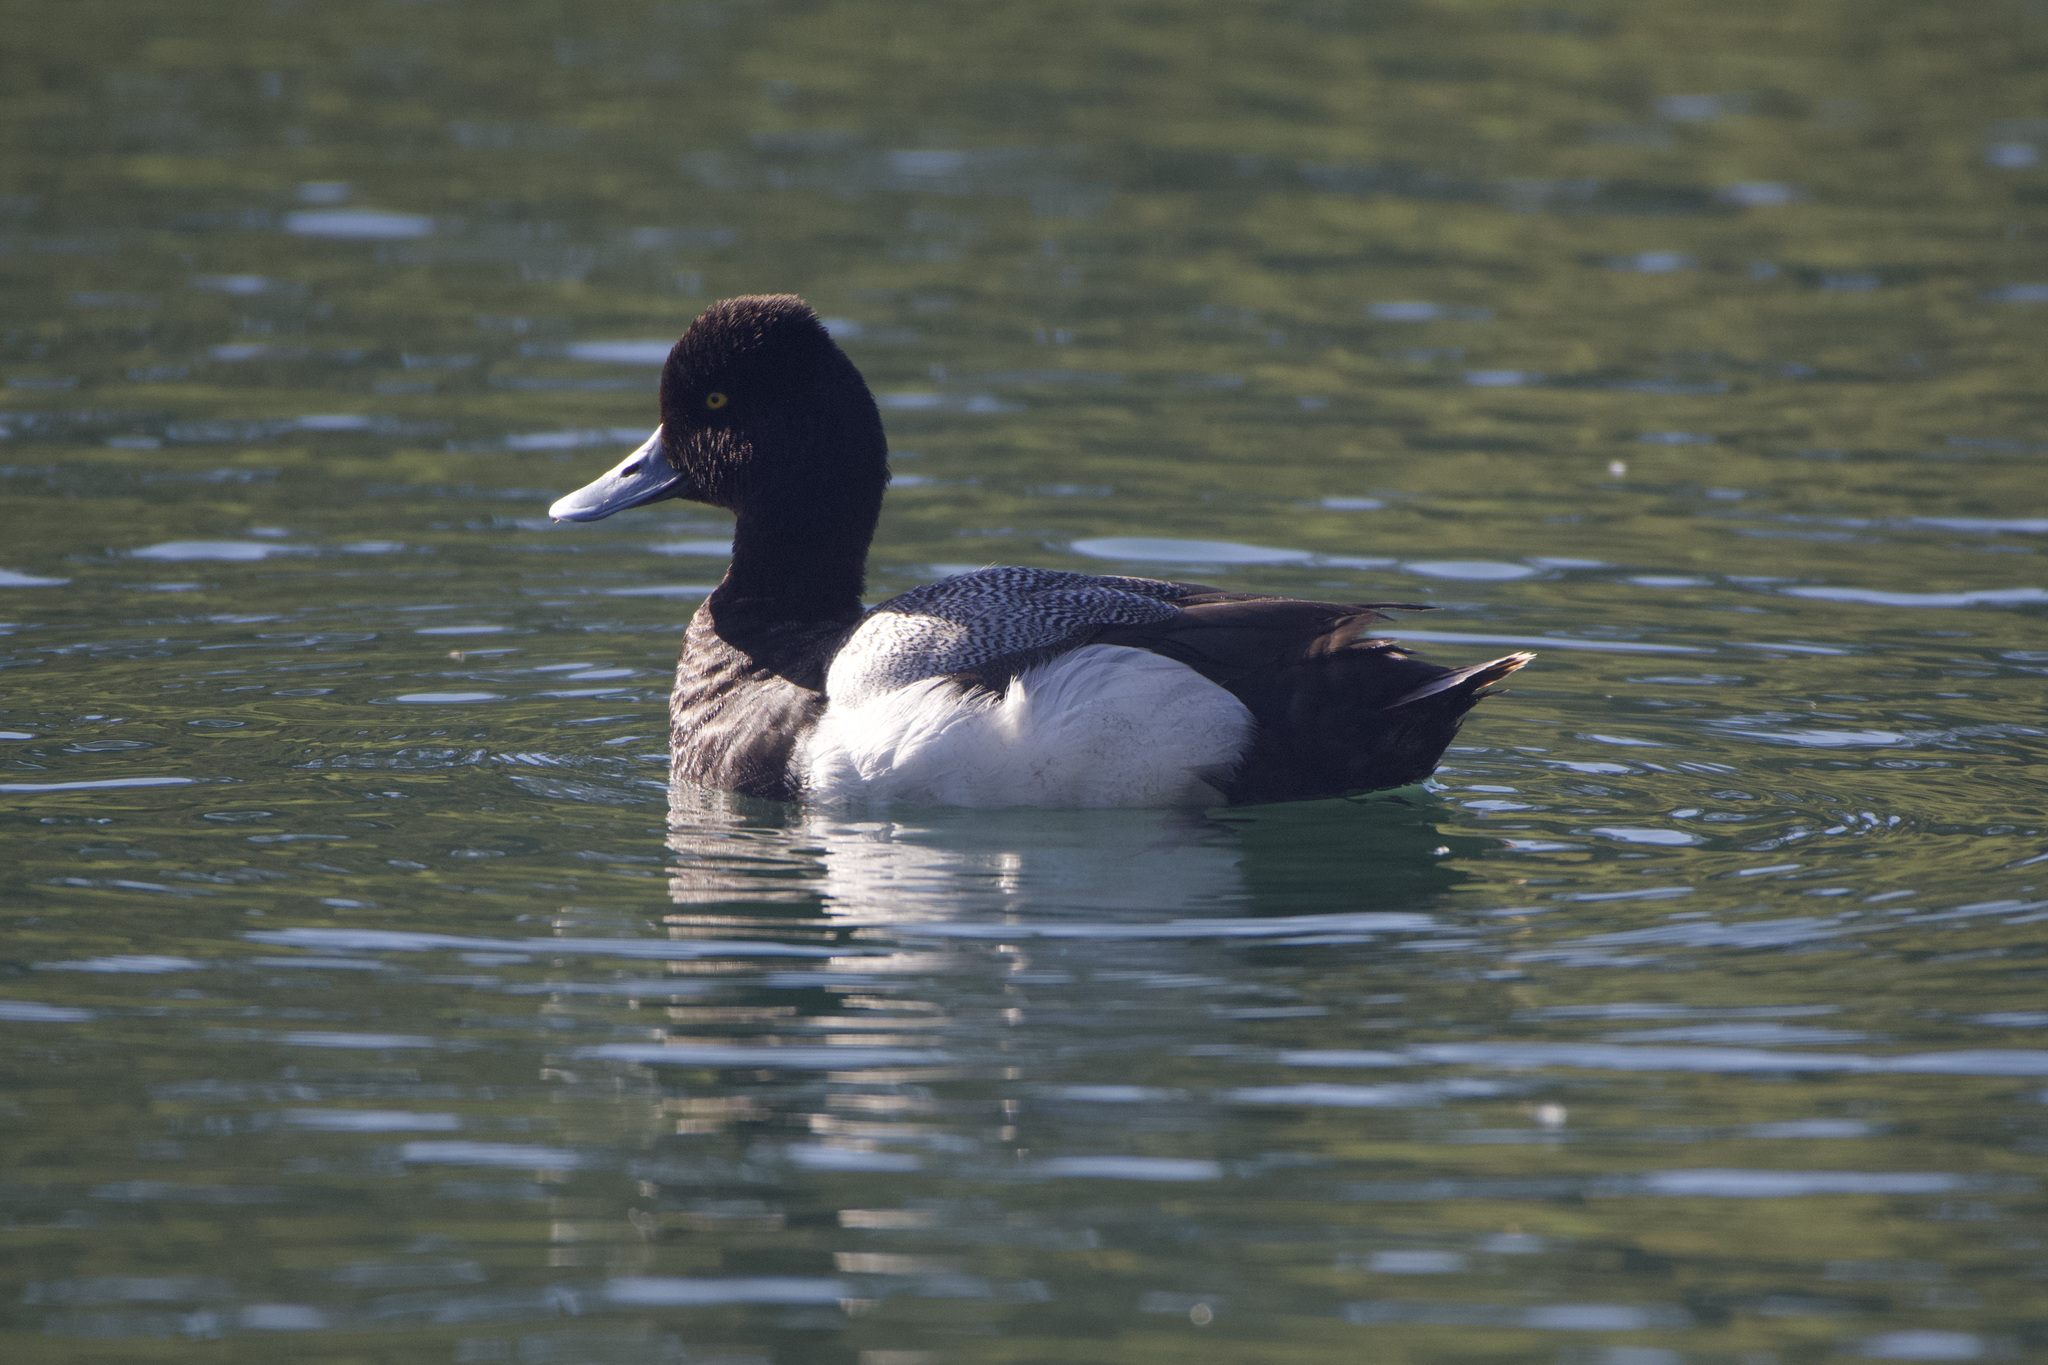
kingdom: Animalia
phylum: Chordata
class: Aves
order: Anseriformes
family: Anatidae
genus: Aythya
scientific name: Aythya affinis
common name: Lesser scaup
